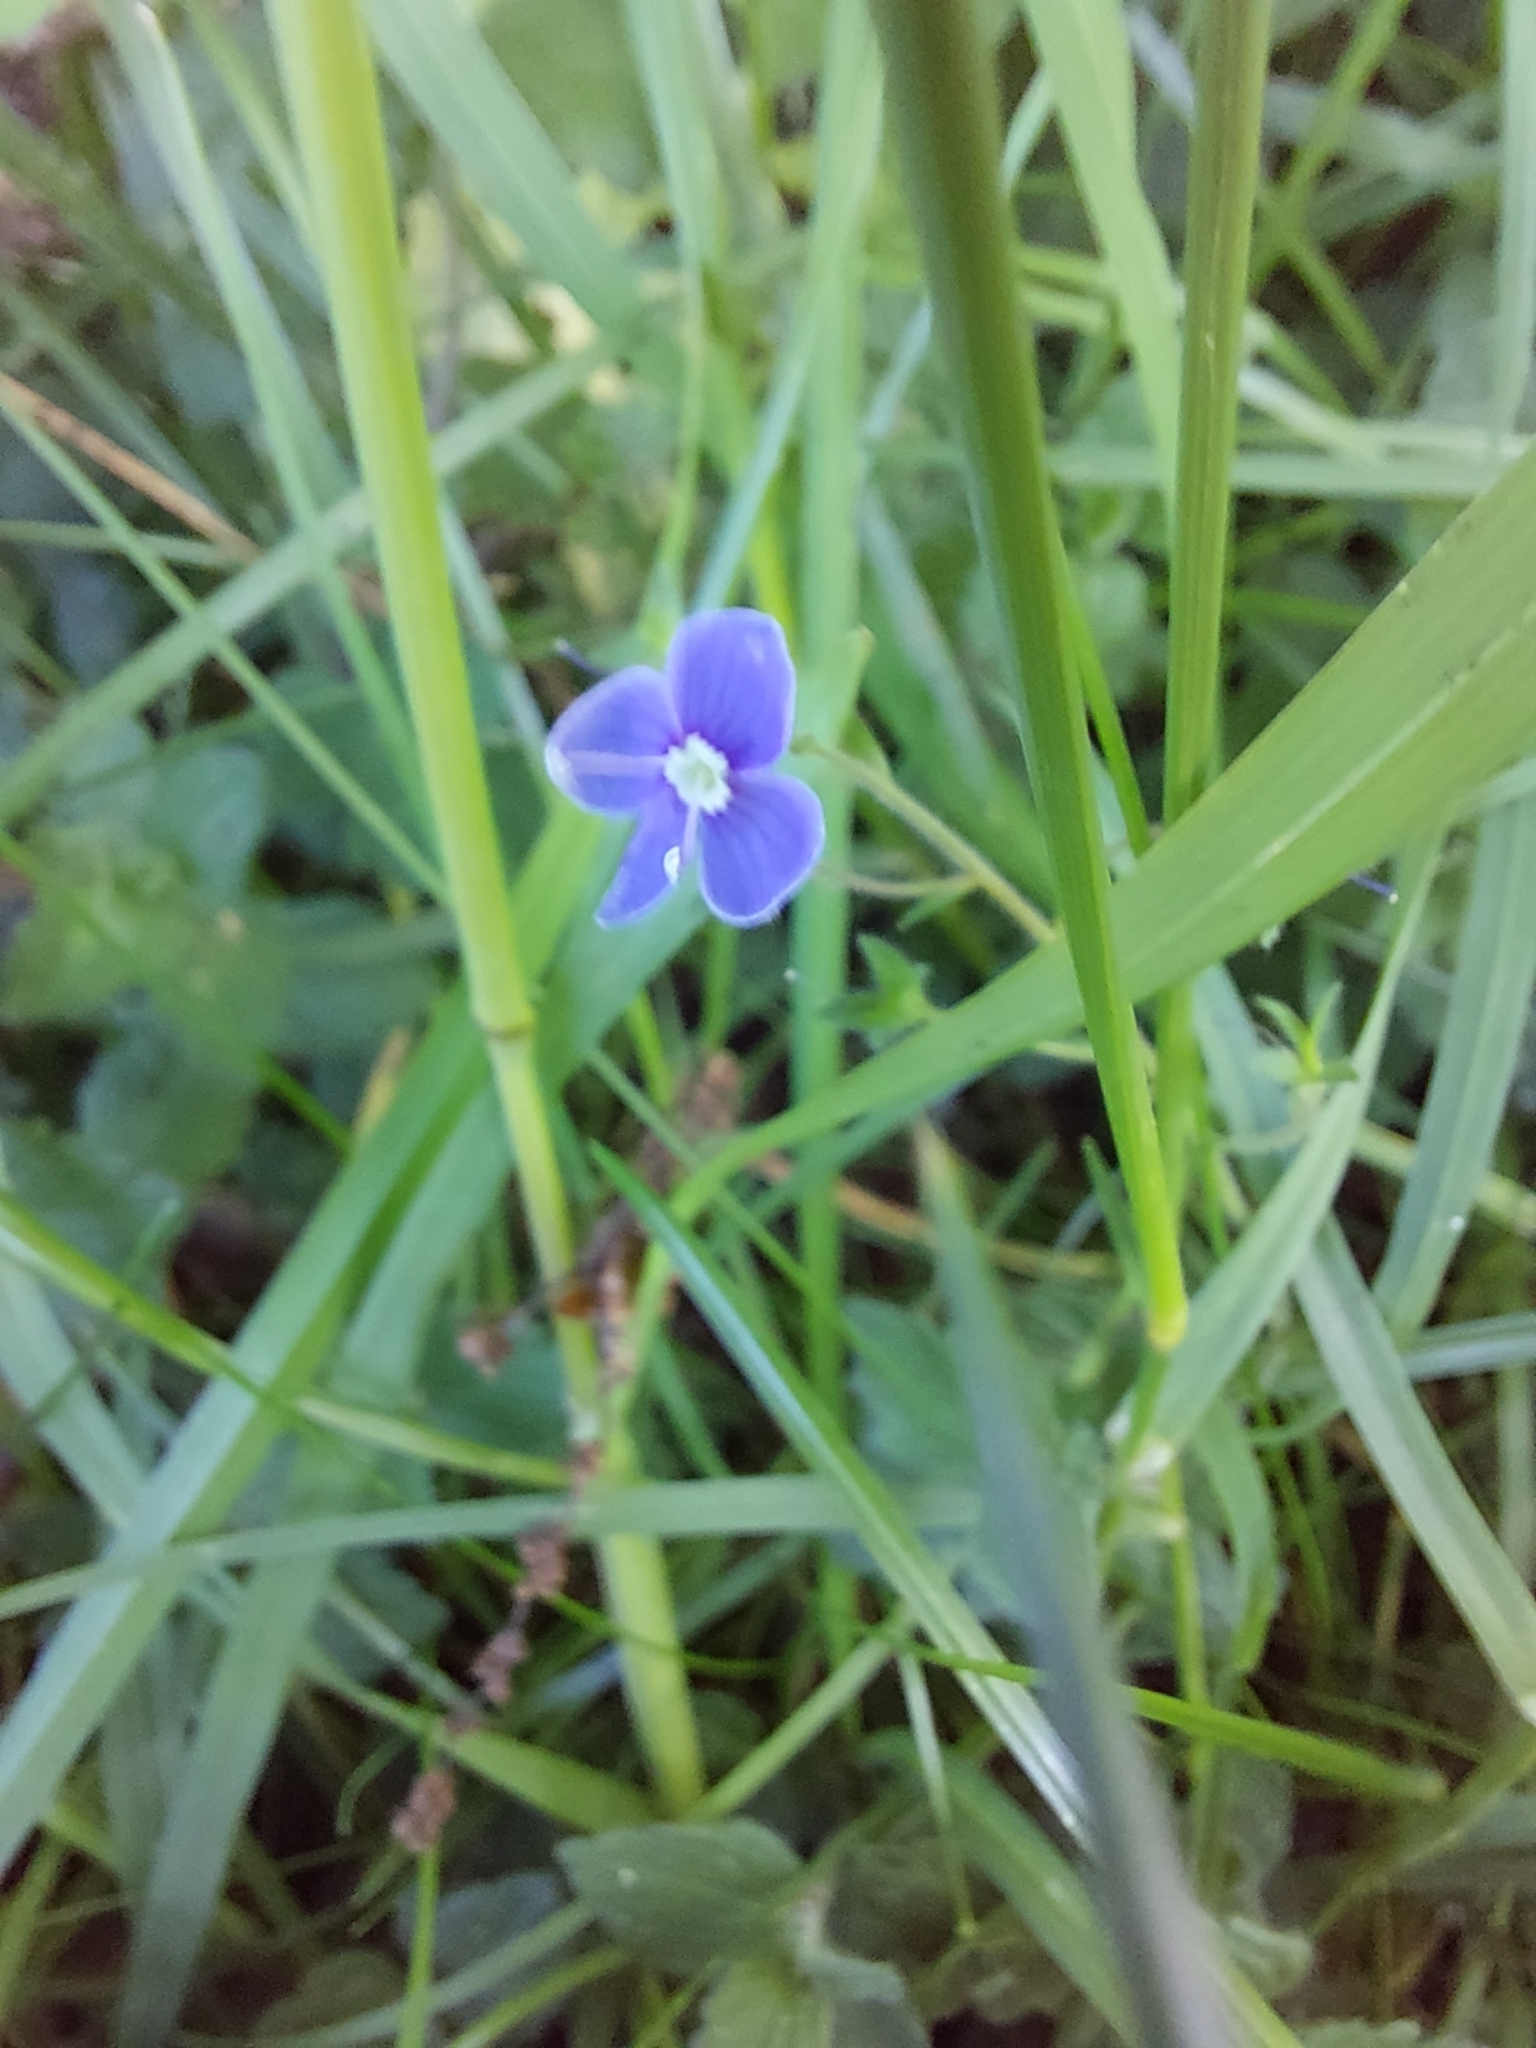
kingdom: Plantae
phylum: Tracheophyta
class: Magnoliopsida
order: Lamiales
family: Plantaginaceae
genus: Veronica
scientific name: Veronica chamaedrys
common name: Germander speedwell
